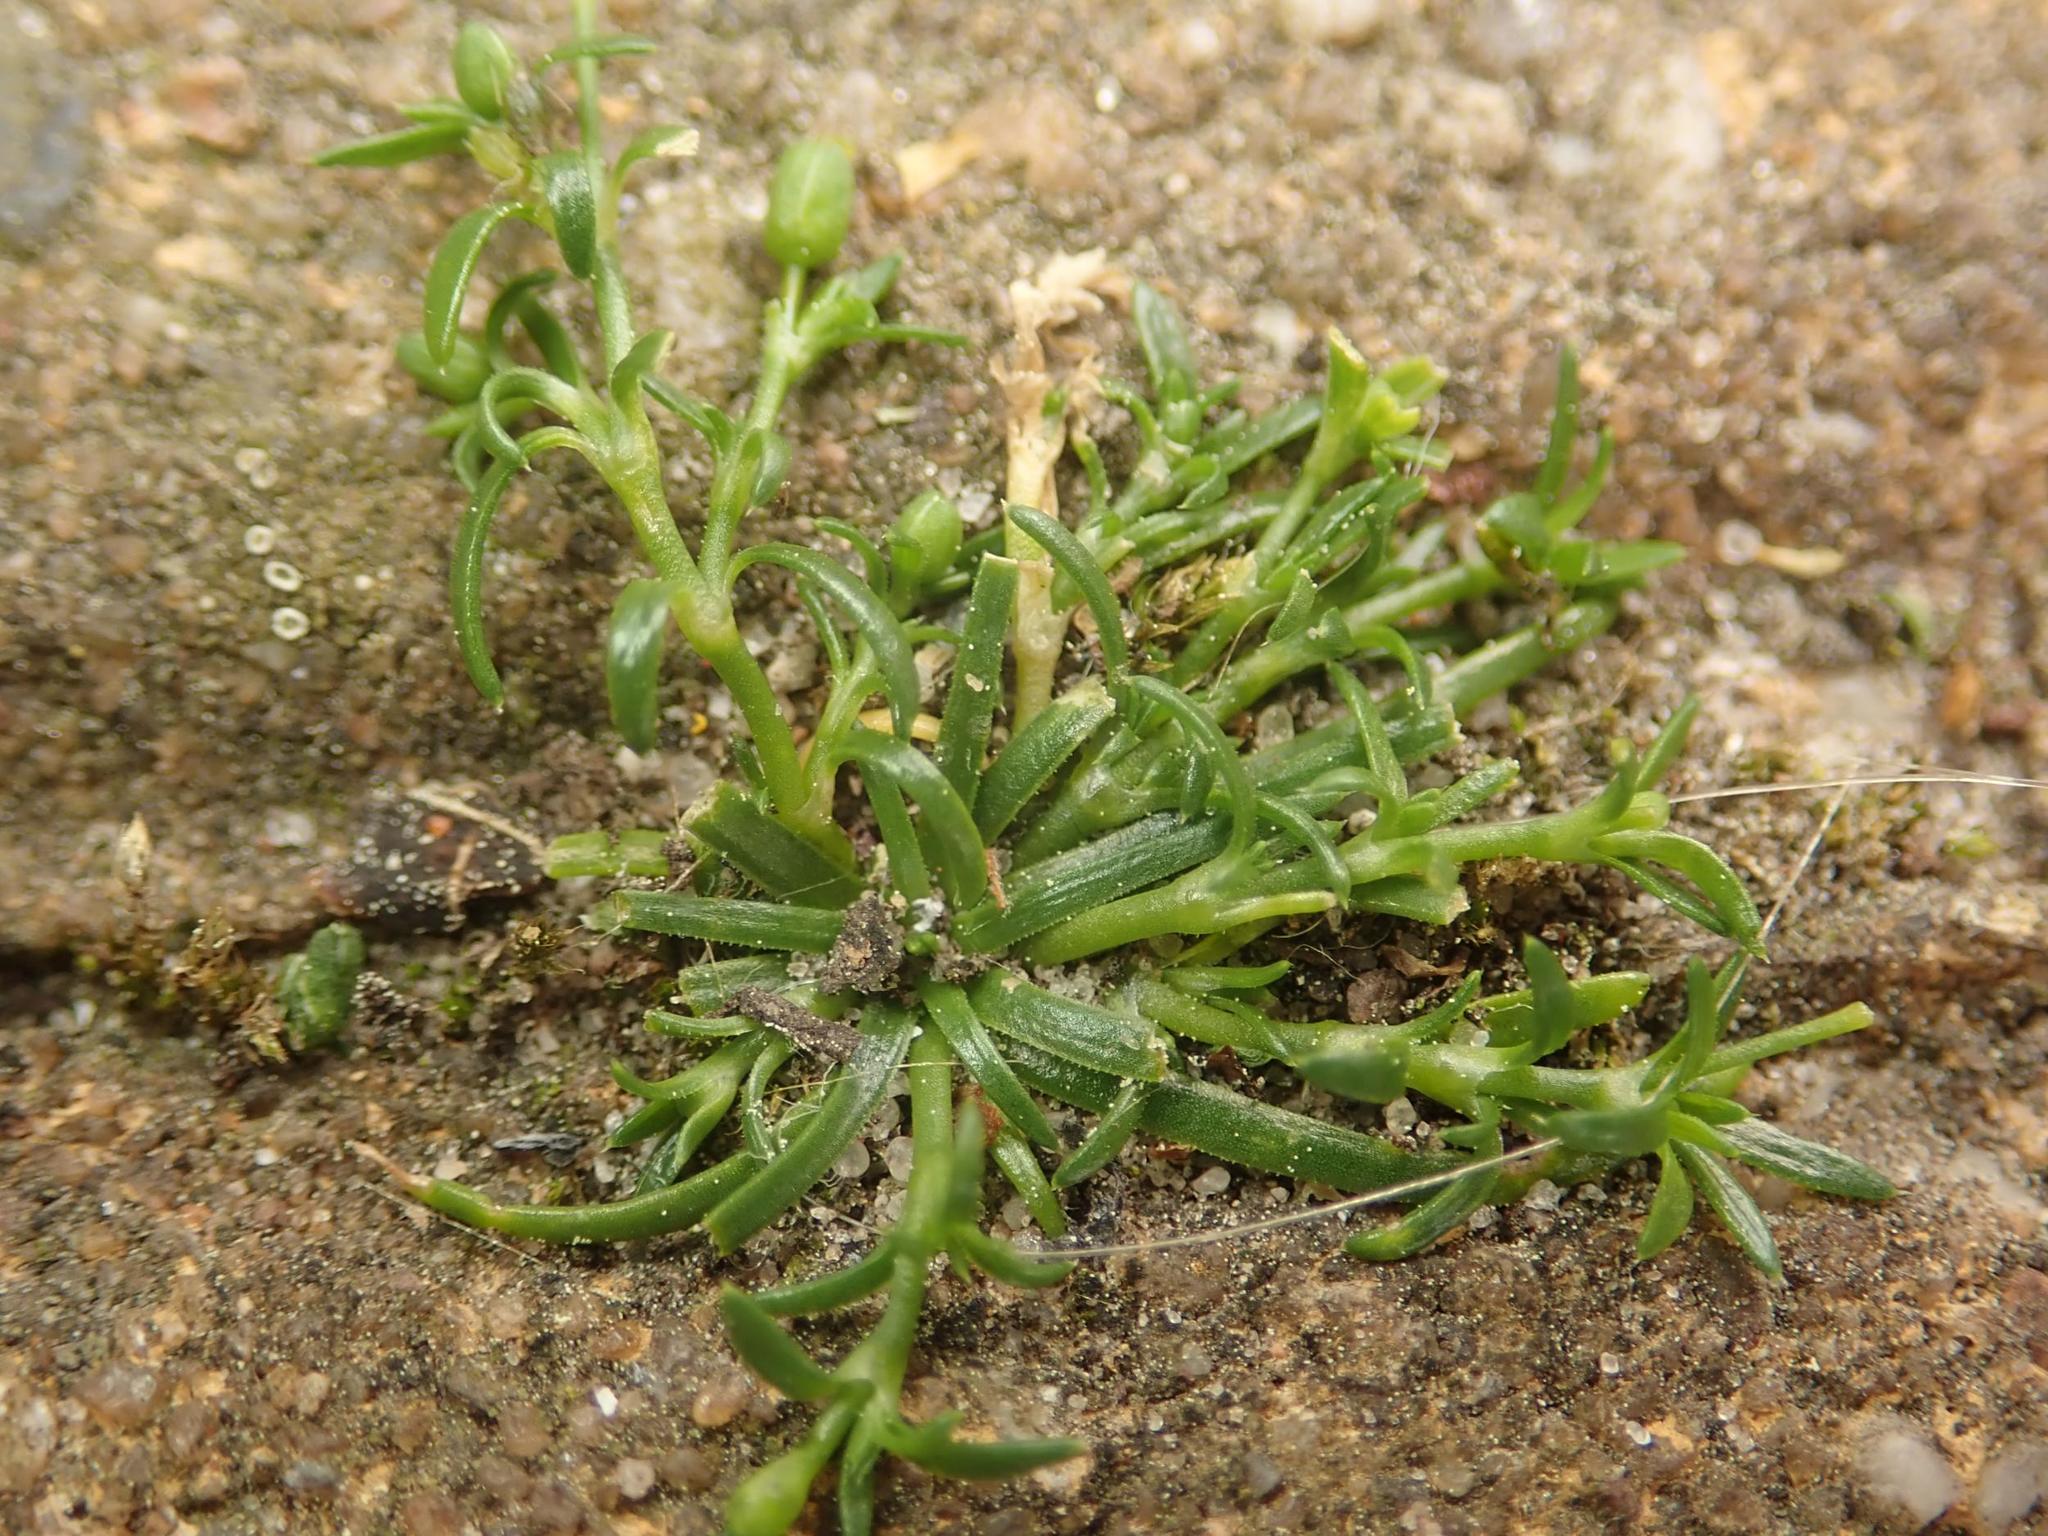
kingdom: Plantae
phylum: Tracheophyta
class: Magnoliopsida
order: Caryophyllales
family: Caryophyllaceae
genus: Sagina
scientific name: Sagina procumbens
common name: Procumbent pearlwort
